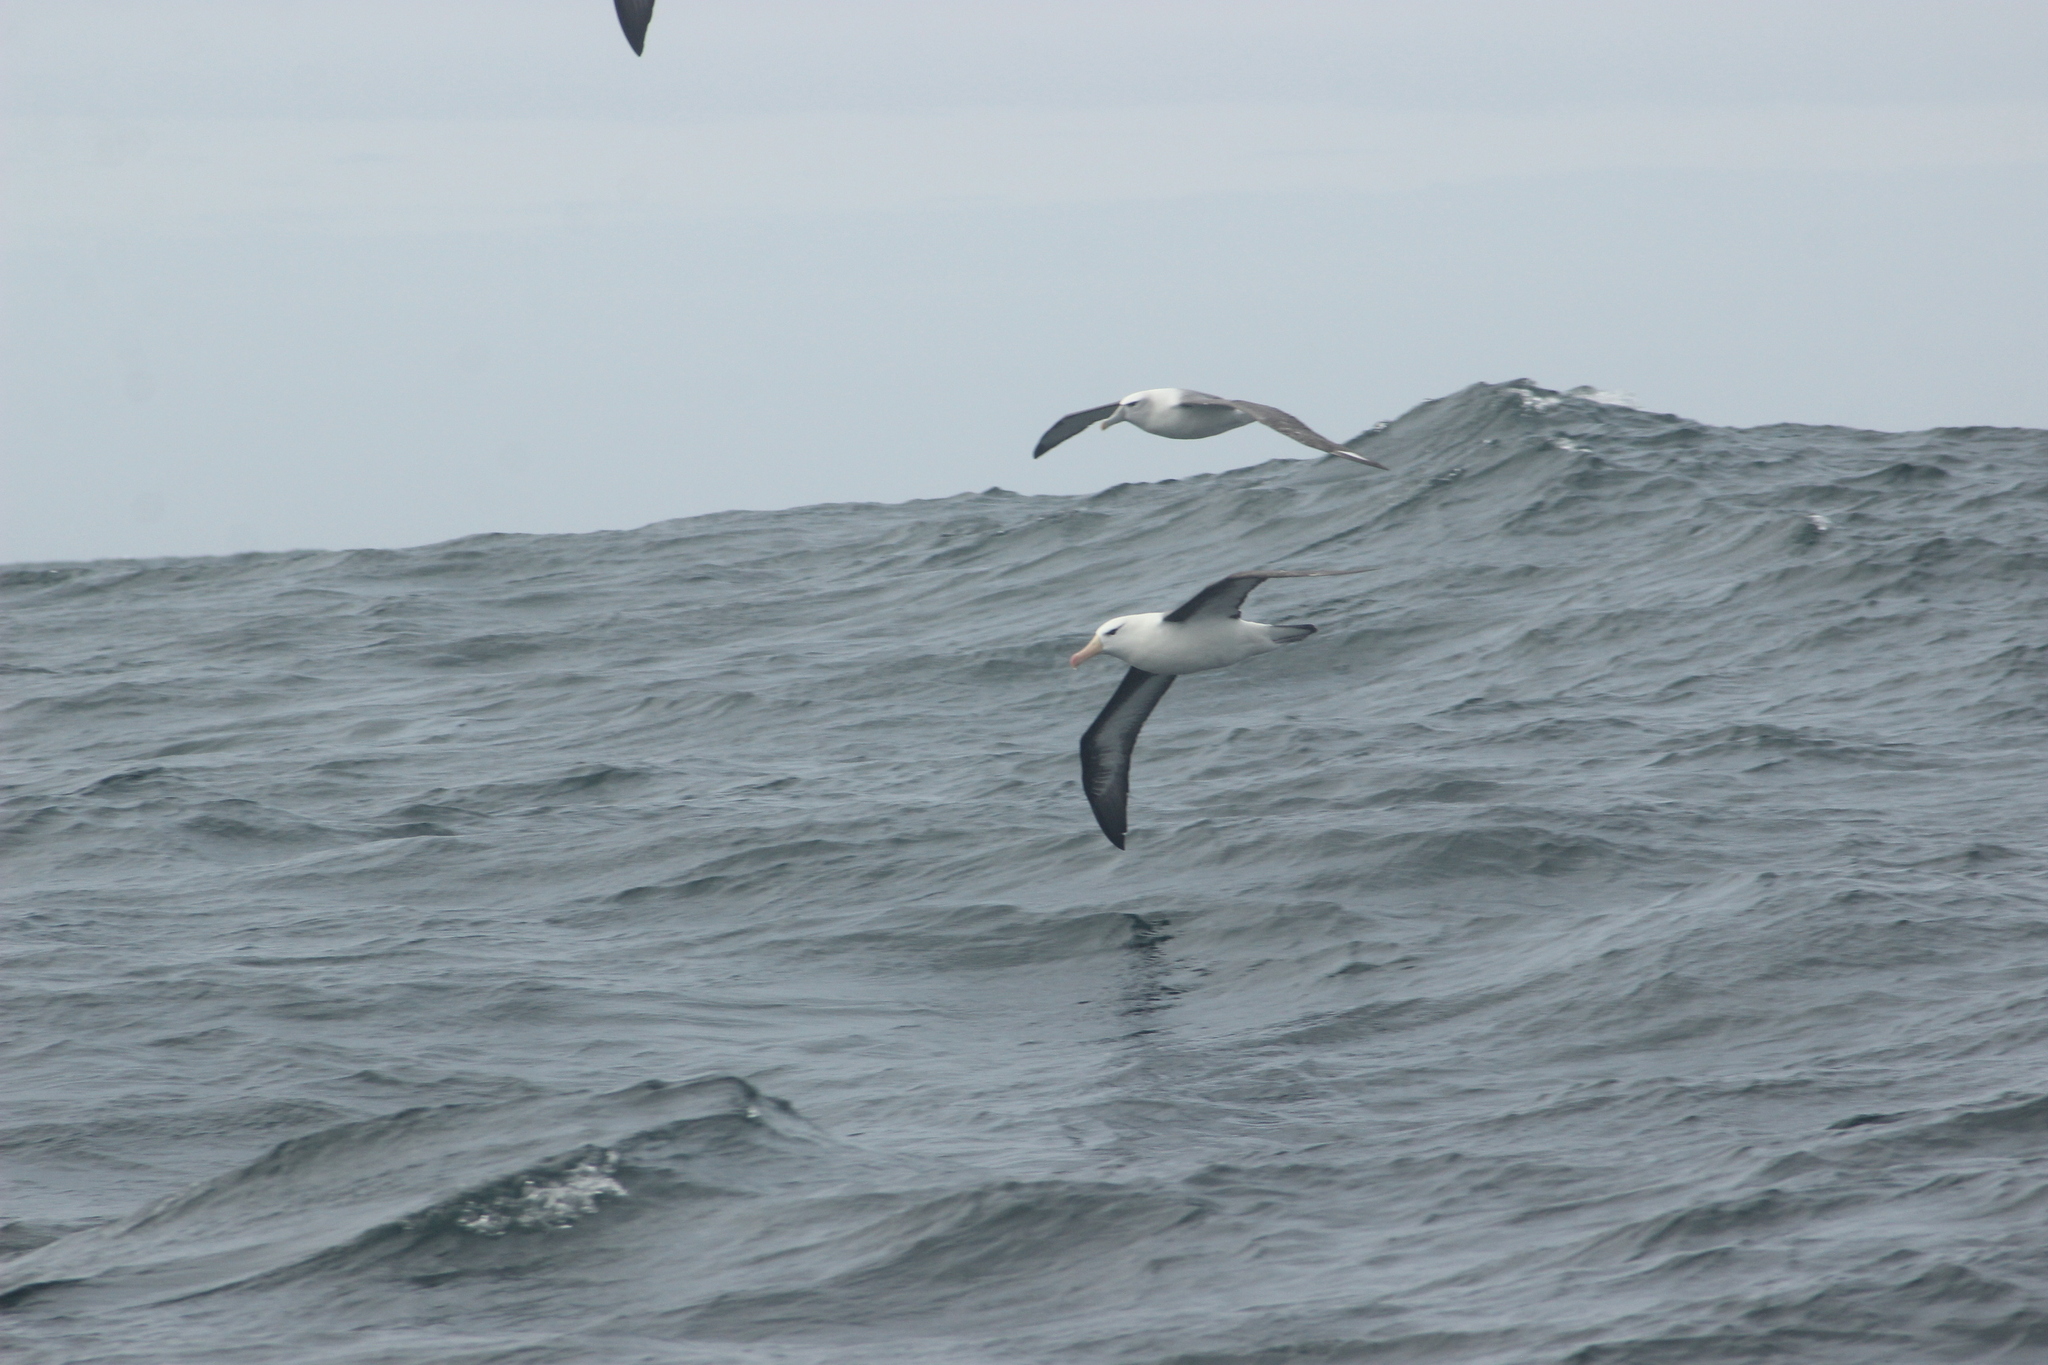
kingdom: Animalia
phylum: Chordata
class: Aves
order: Procellariiformes
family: Diomedeidae
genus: Thalassarche
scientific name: Thalassarche melanophris
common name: Black-browed albatross
